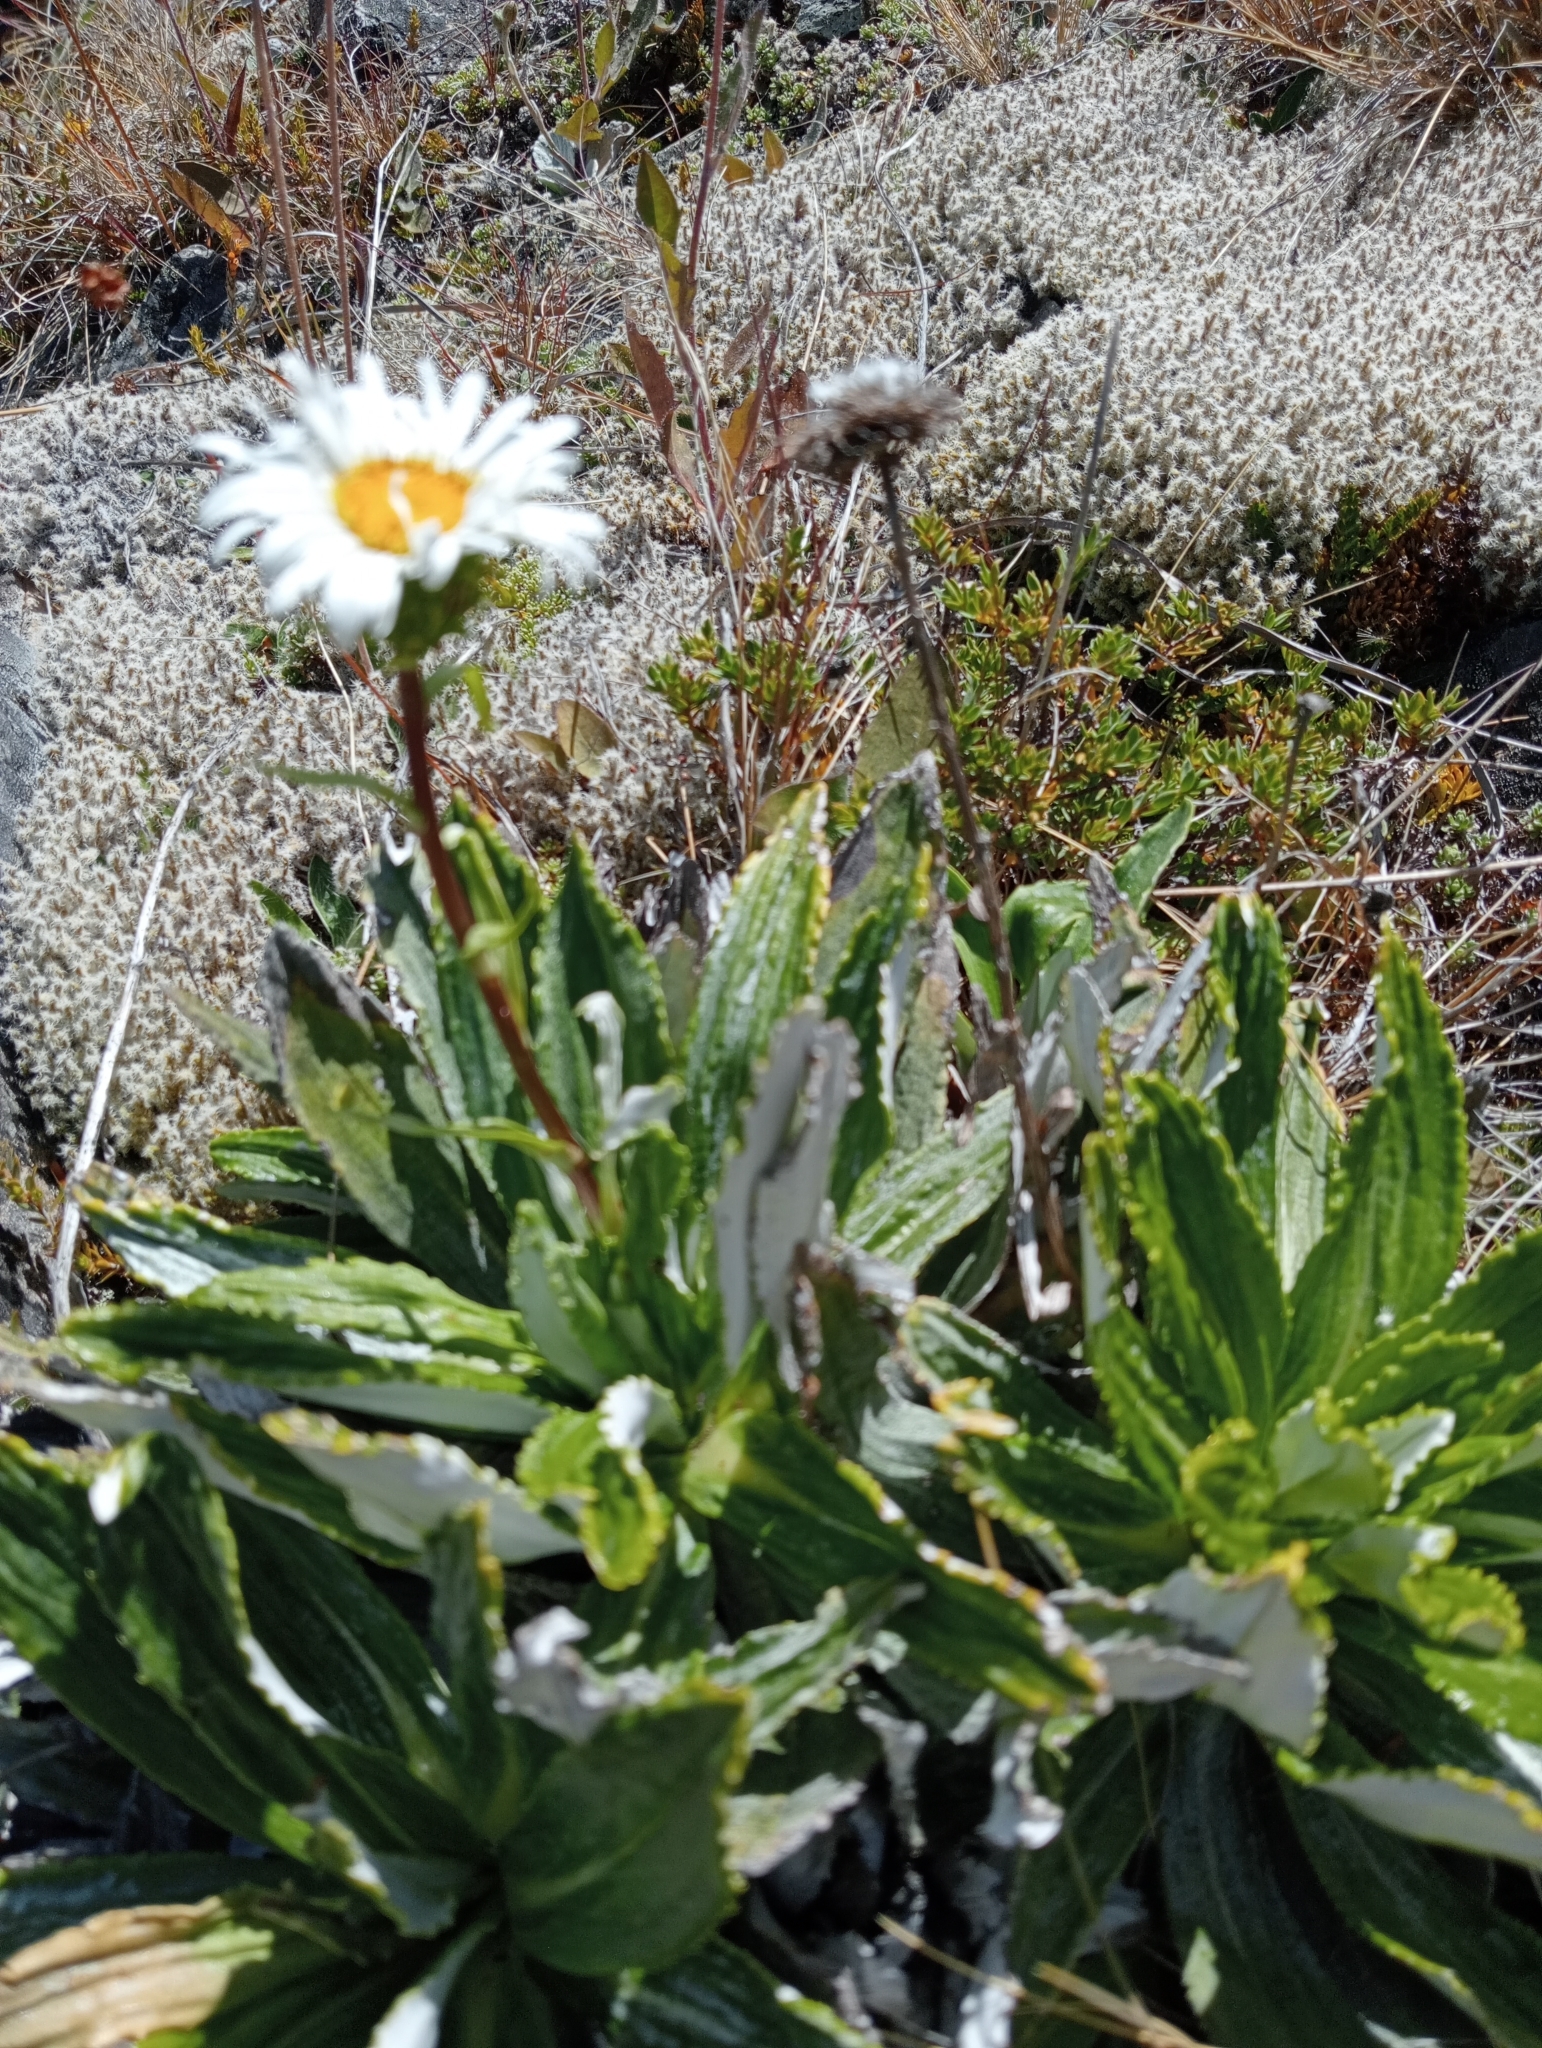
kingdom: Plantae
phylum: Tracheophyta
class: Magnoliopsida
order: Asterales
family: Asteraceae
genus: Celmisia
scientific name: Celmisia densiflora
